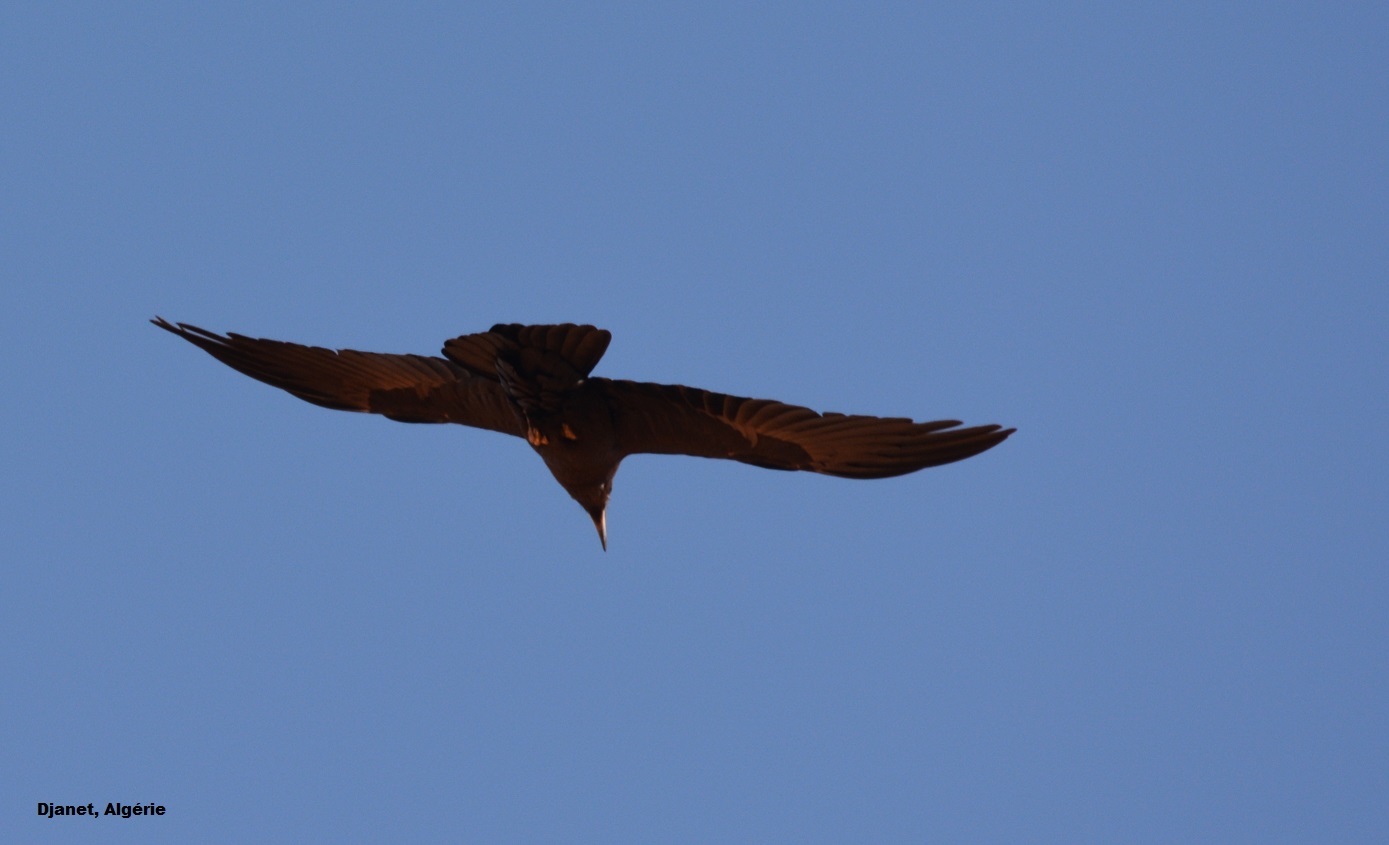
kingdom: Animalia
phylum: Chordata
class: Aves
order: Passeriformes
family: Corvidae
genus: Corvus
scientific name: Corvus ruficollis
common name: Brown-necked raven
